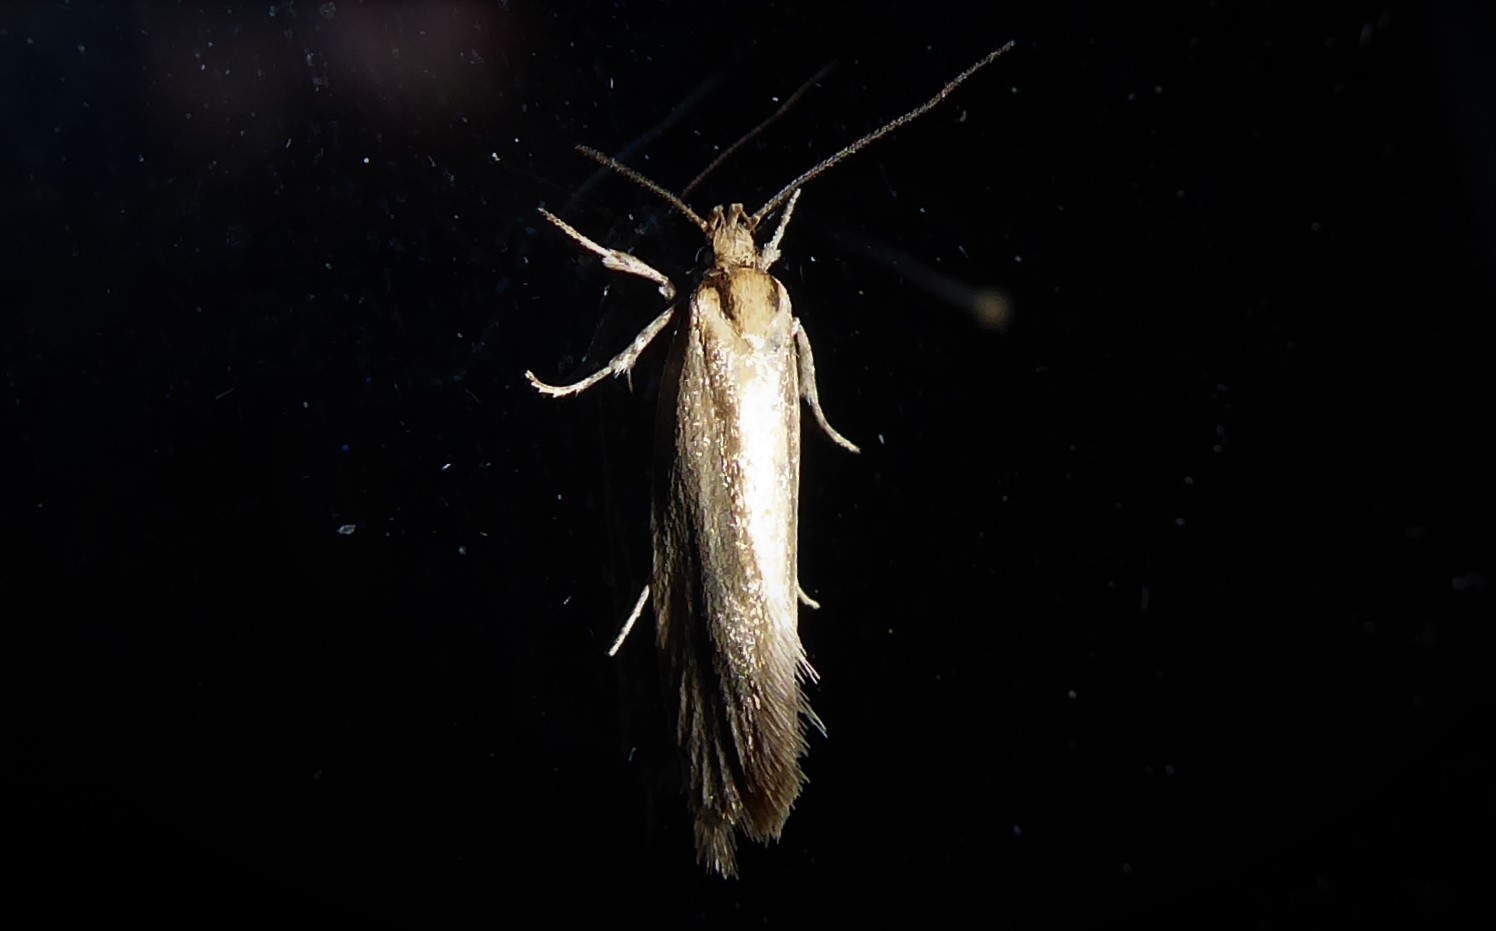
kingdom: Animalia
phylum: Arthropoda
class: Insecta
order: Lepidoptera
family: Oecophoridae
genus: Tingena
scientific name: Tingena chloradelpha
